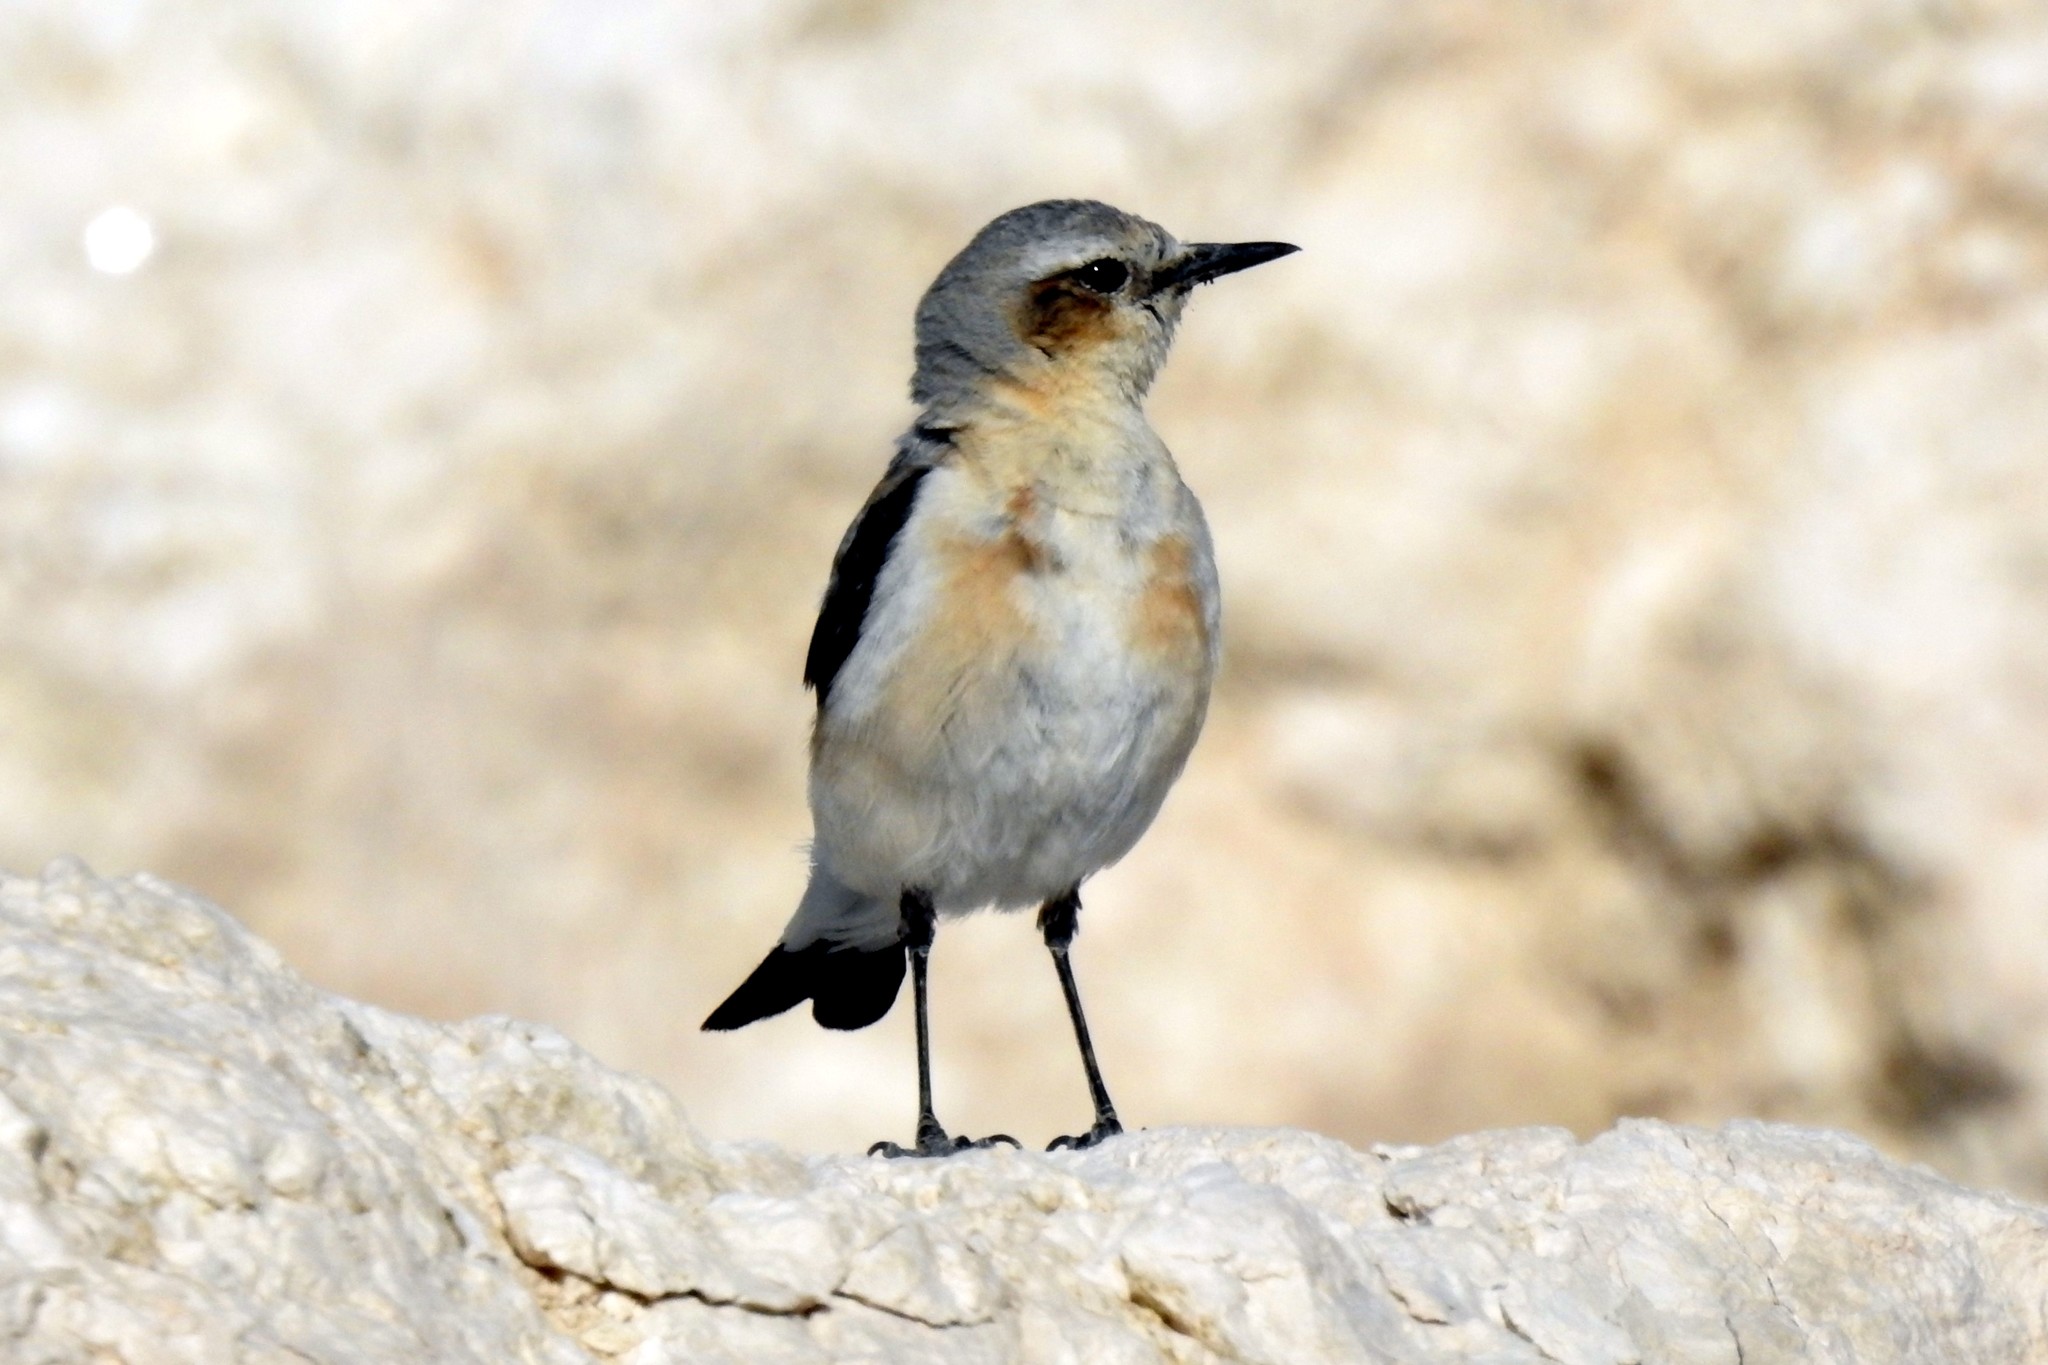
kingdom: Animalia
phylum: Chordata
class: Aves
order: Passeriformes
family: Muscicapidae
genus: Oenanthe
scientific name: Oenanthe oenanthe
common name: Northern wheatear
